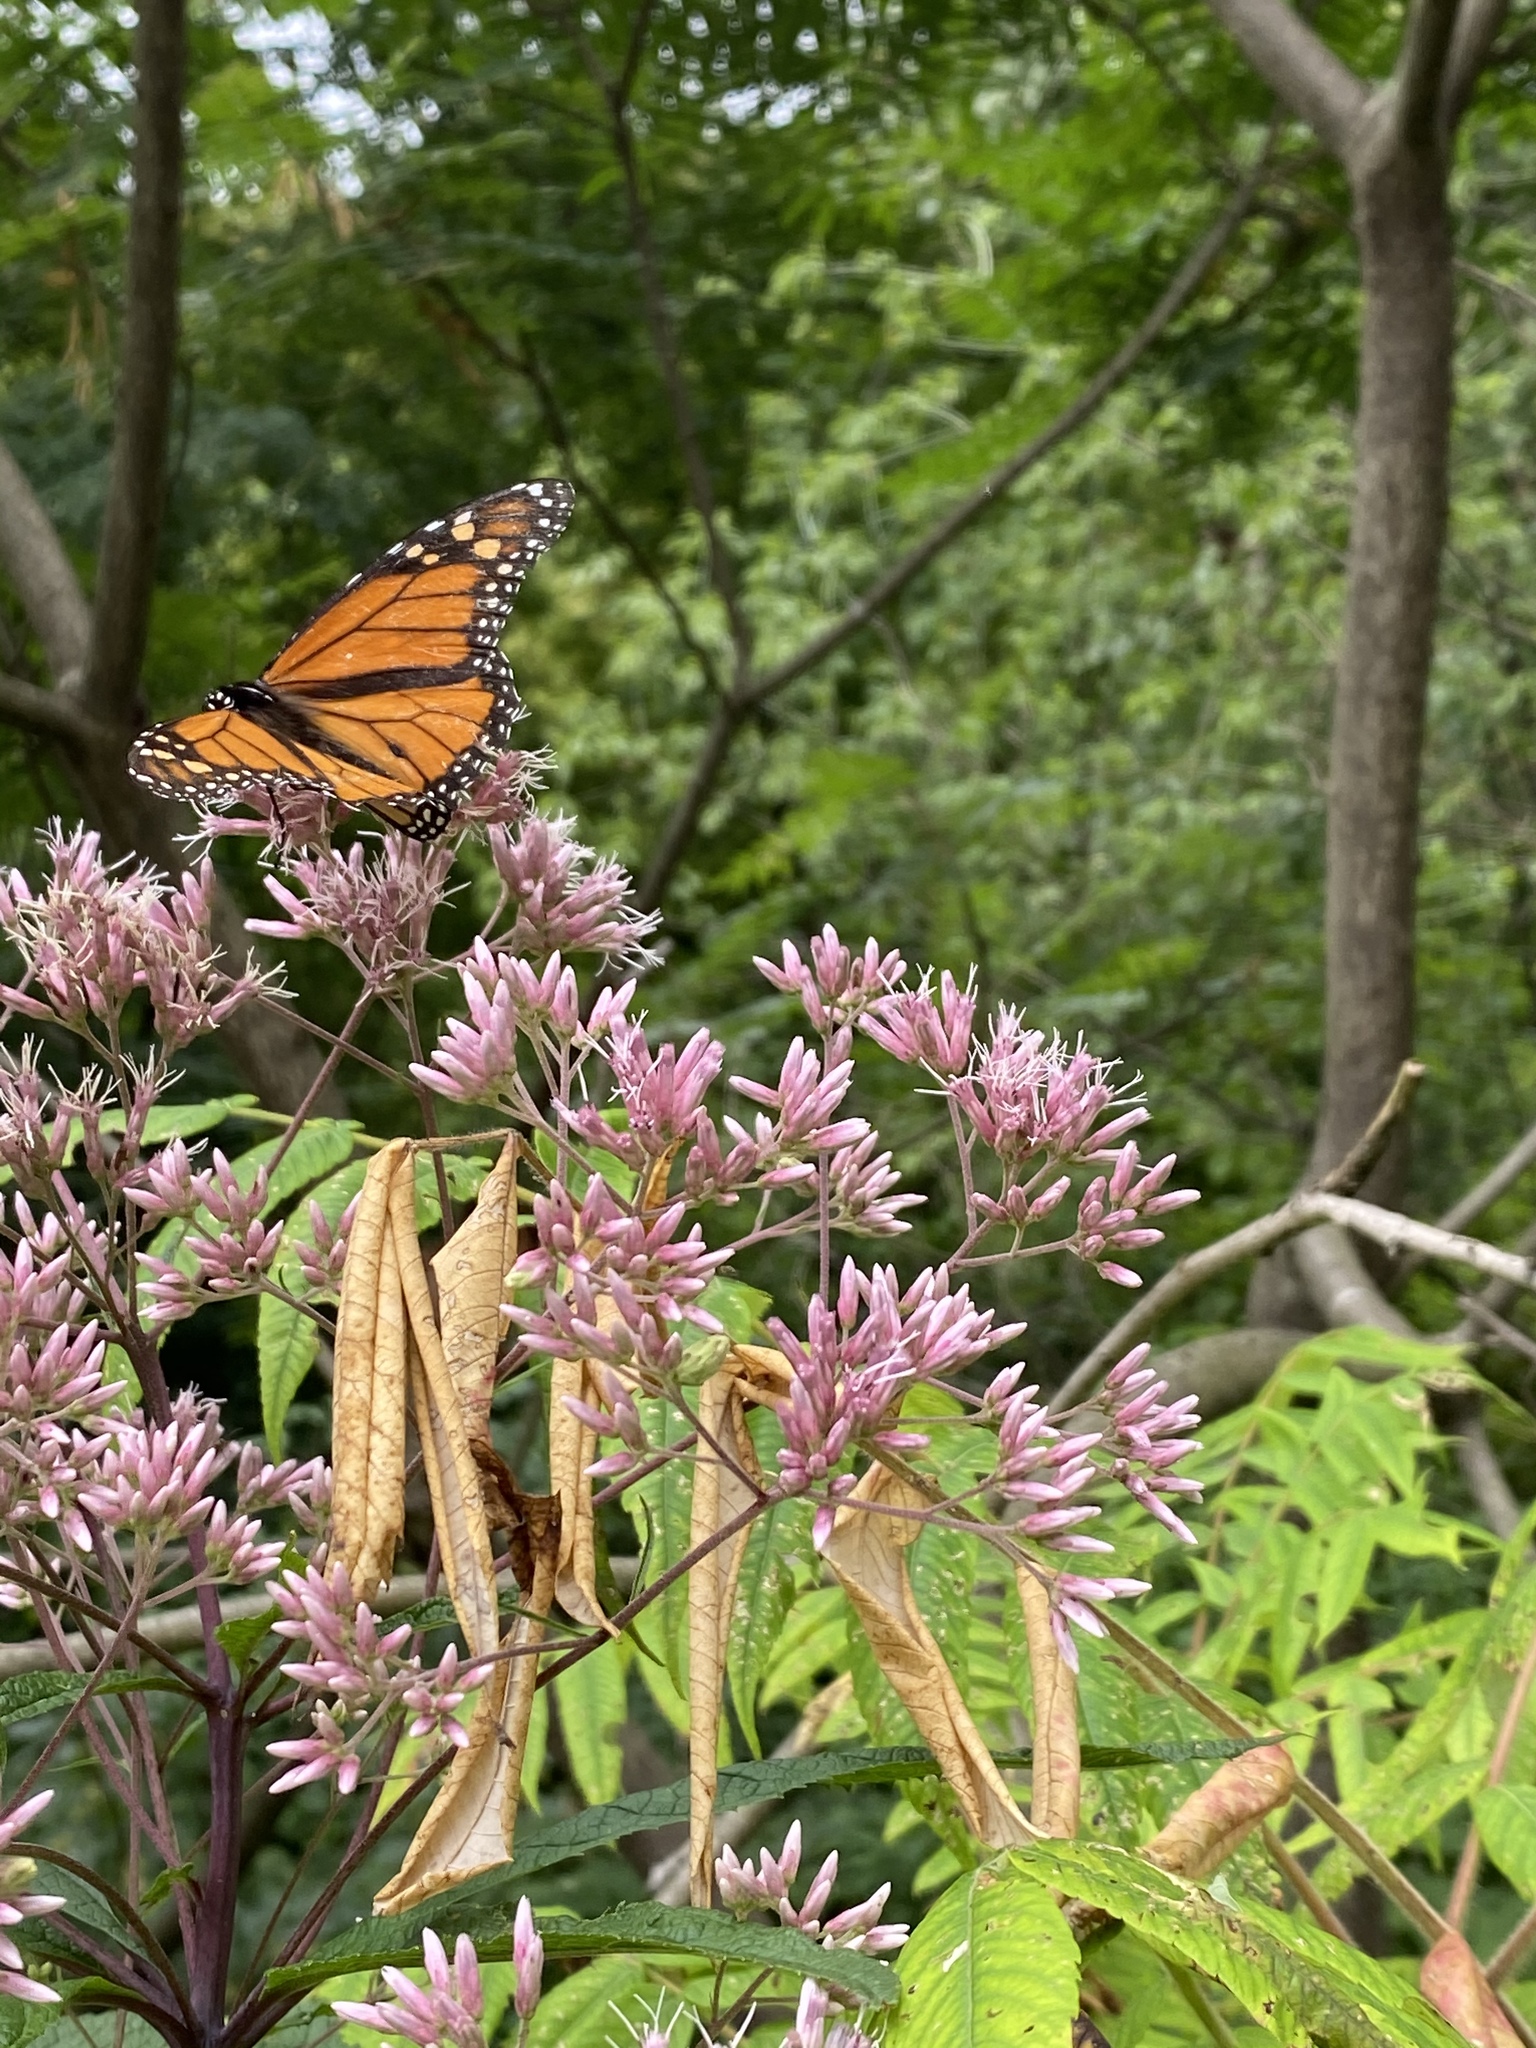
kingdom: Animalia
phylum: Arthropoda
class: Insecta
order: Lepidoptera
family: Nymphalidae
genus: Danaus
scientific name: Danaus plexippus
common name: Monarch
